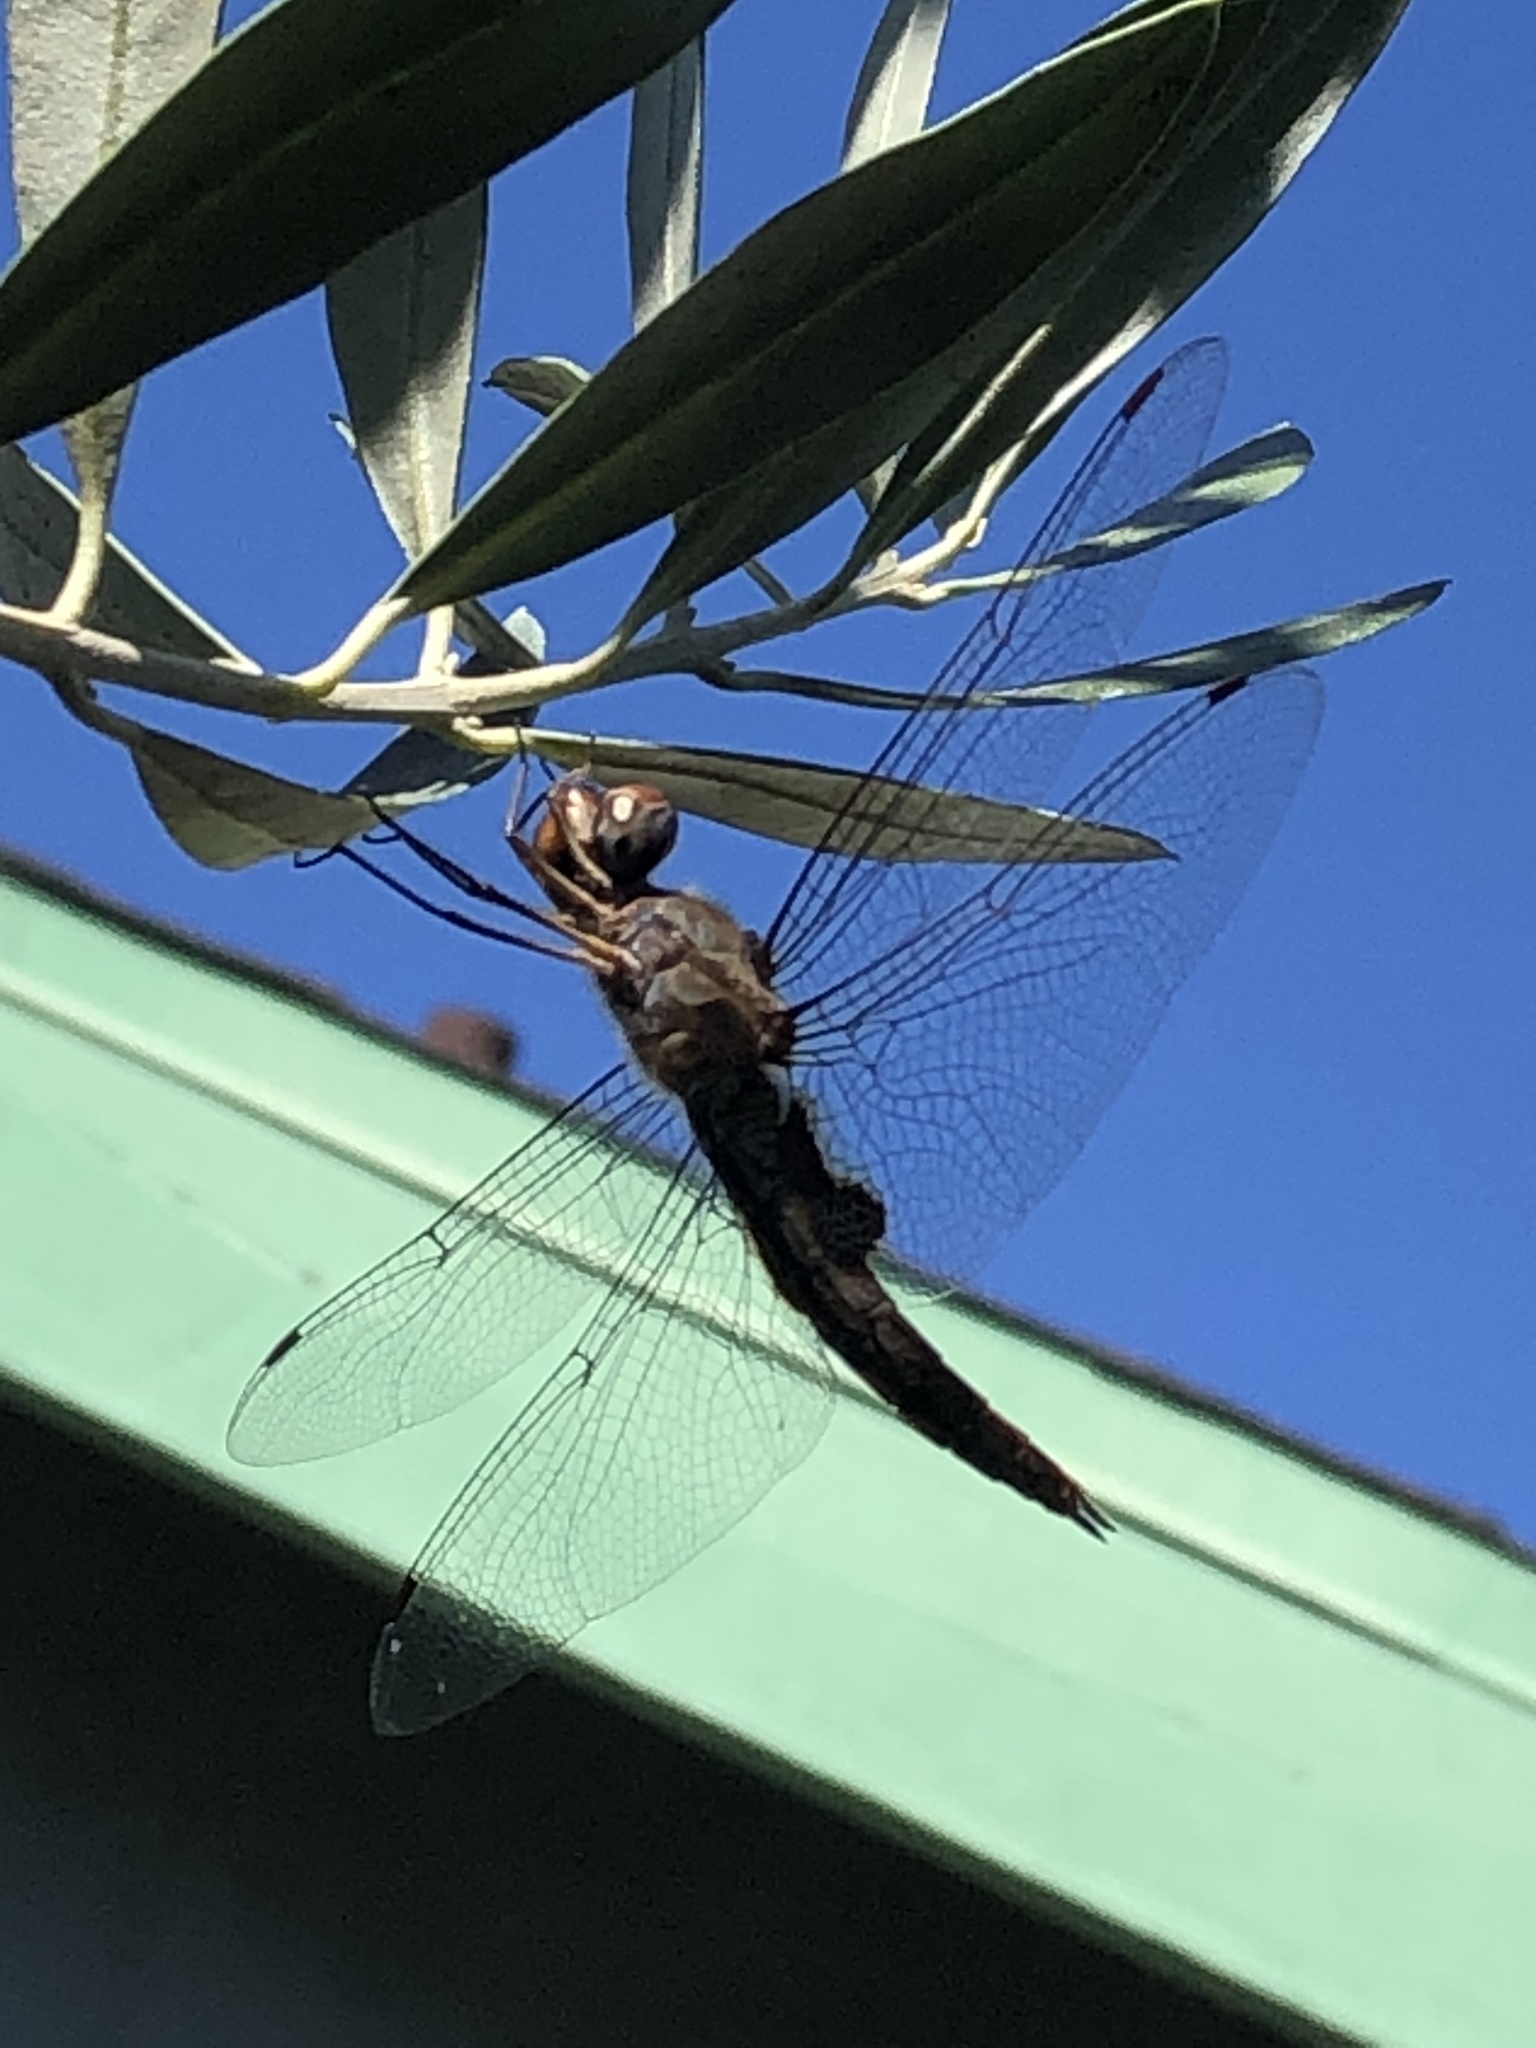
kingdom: Animalia
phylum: Arthropoda
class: Insecta
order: Odonata
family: Libellulidae
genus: Pantala
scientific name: Pantala hymenaea
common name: Spot-winged glider
